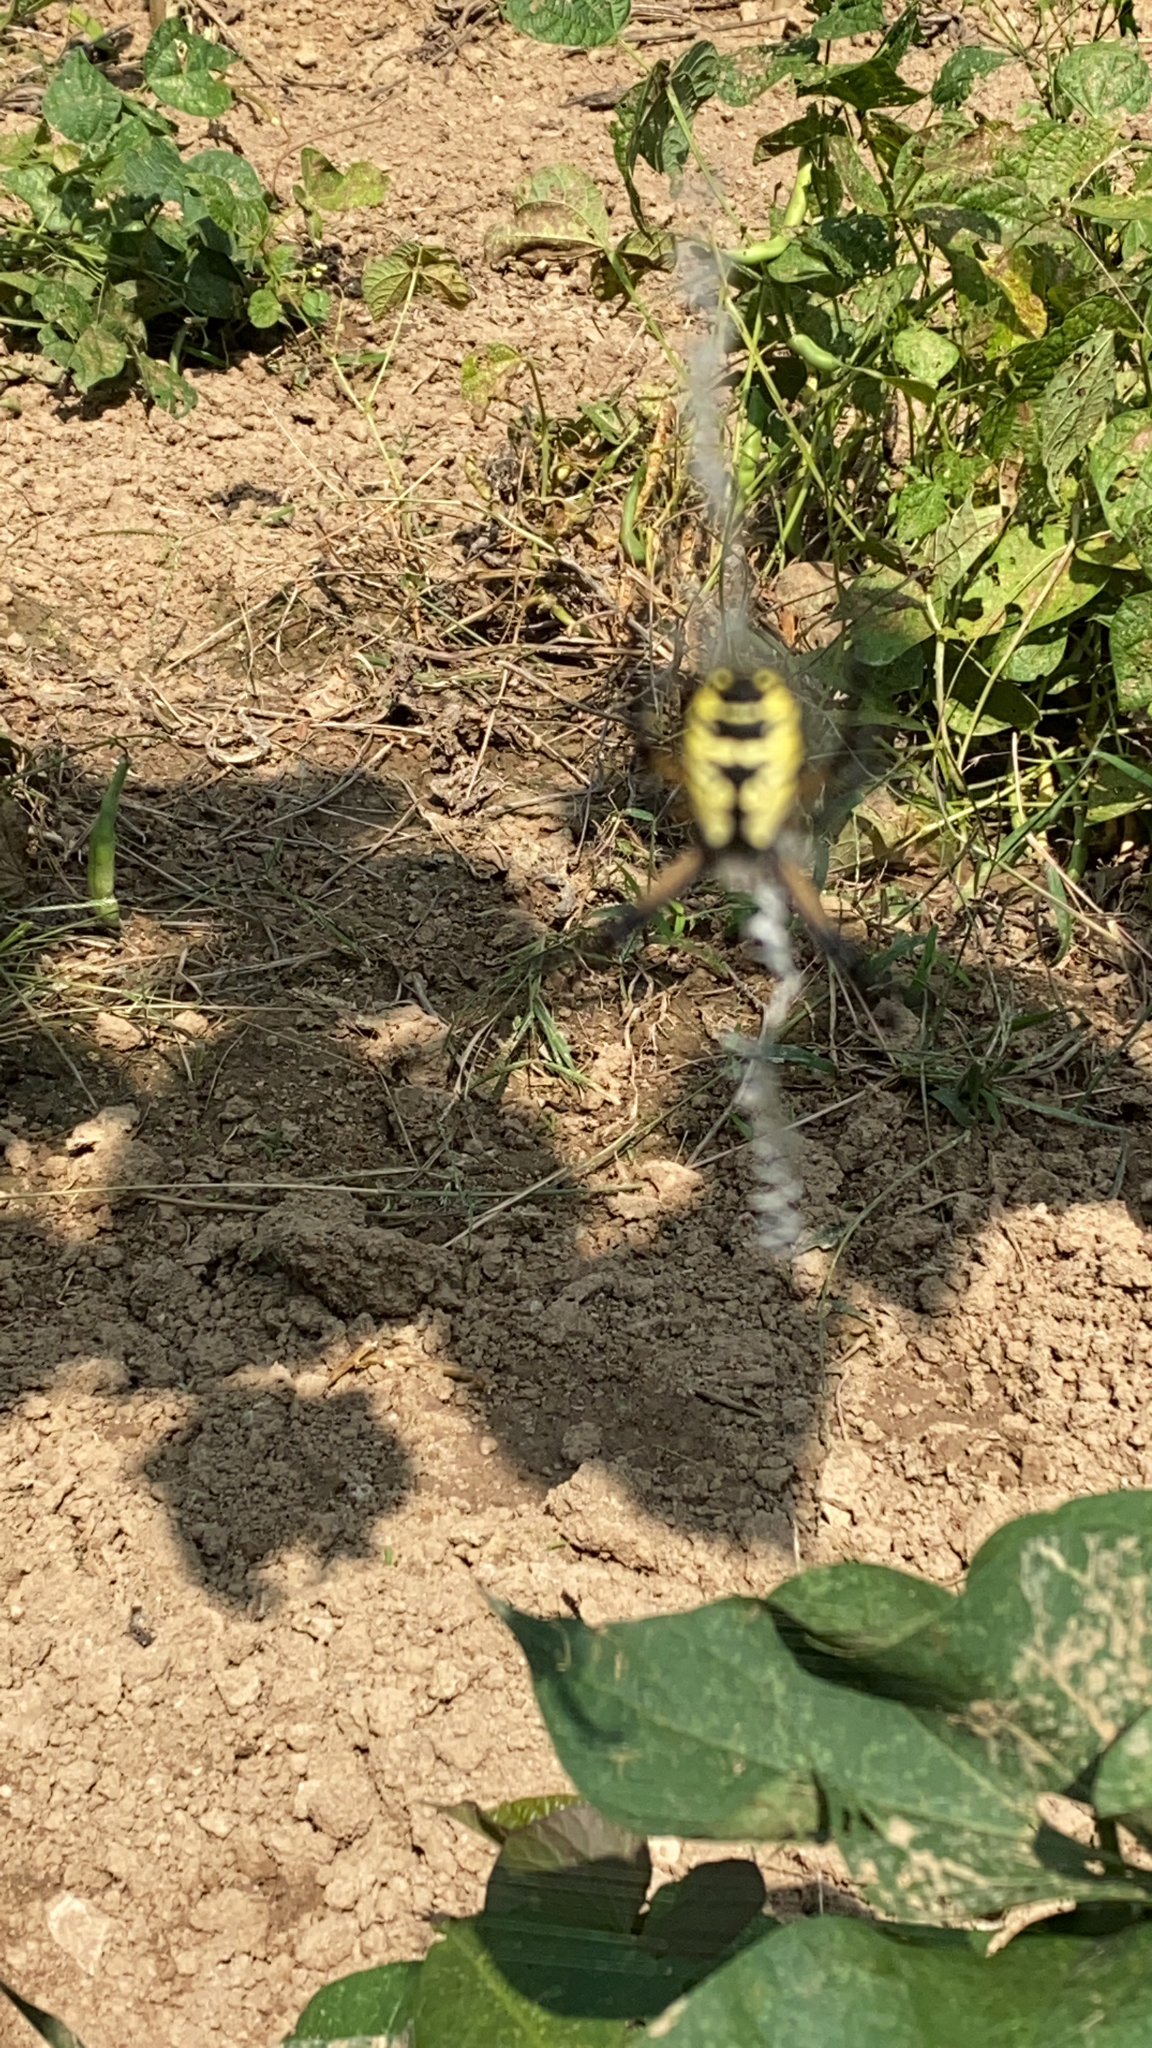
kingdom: Animalia
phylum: Arthropoda
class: Arachnida
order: Araneae
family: Araneidae
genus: Argiope
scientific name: Argiope aurantia
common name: Orb weavers
